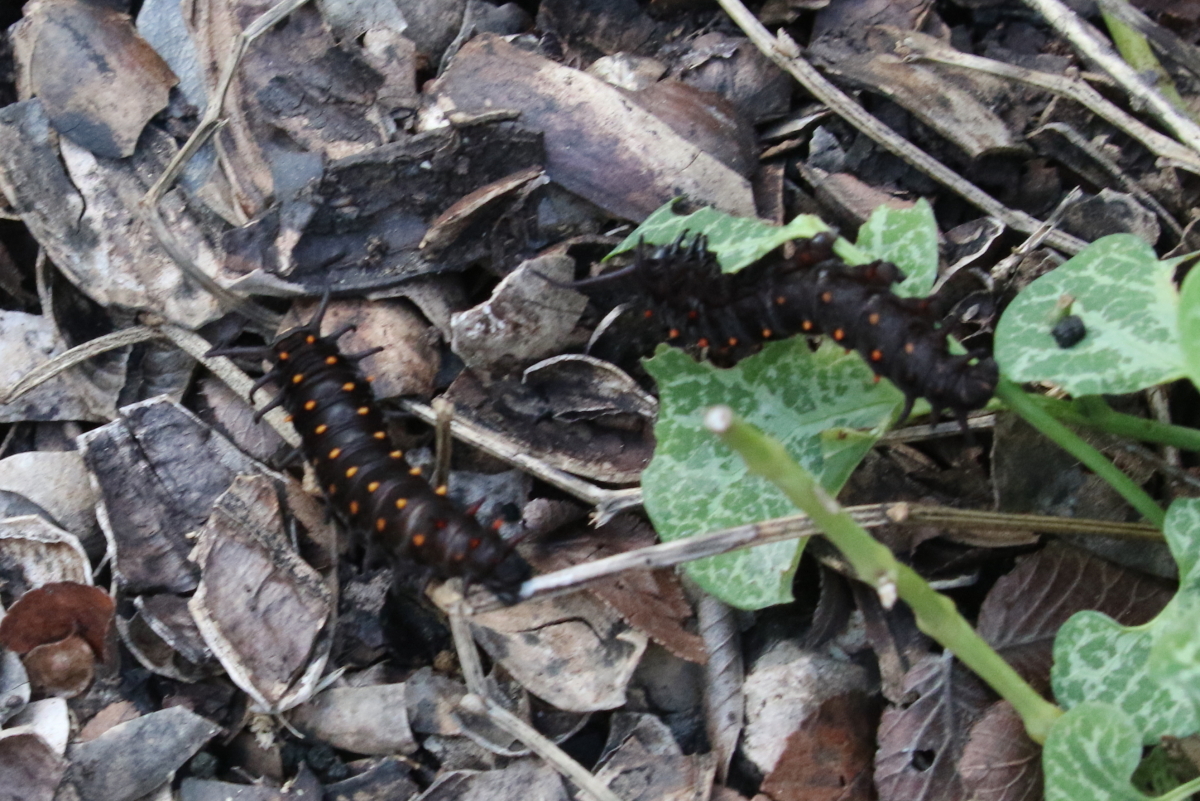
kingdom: Animalia
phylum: Arthropoda
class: Insecta
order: Lepidoptera
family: Papilionidae
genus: Battus
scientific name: Battus philenor
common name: Pipevine swallowtail
